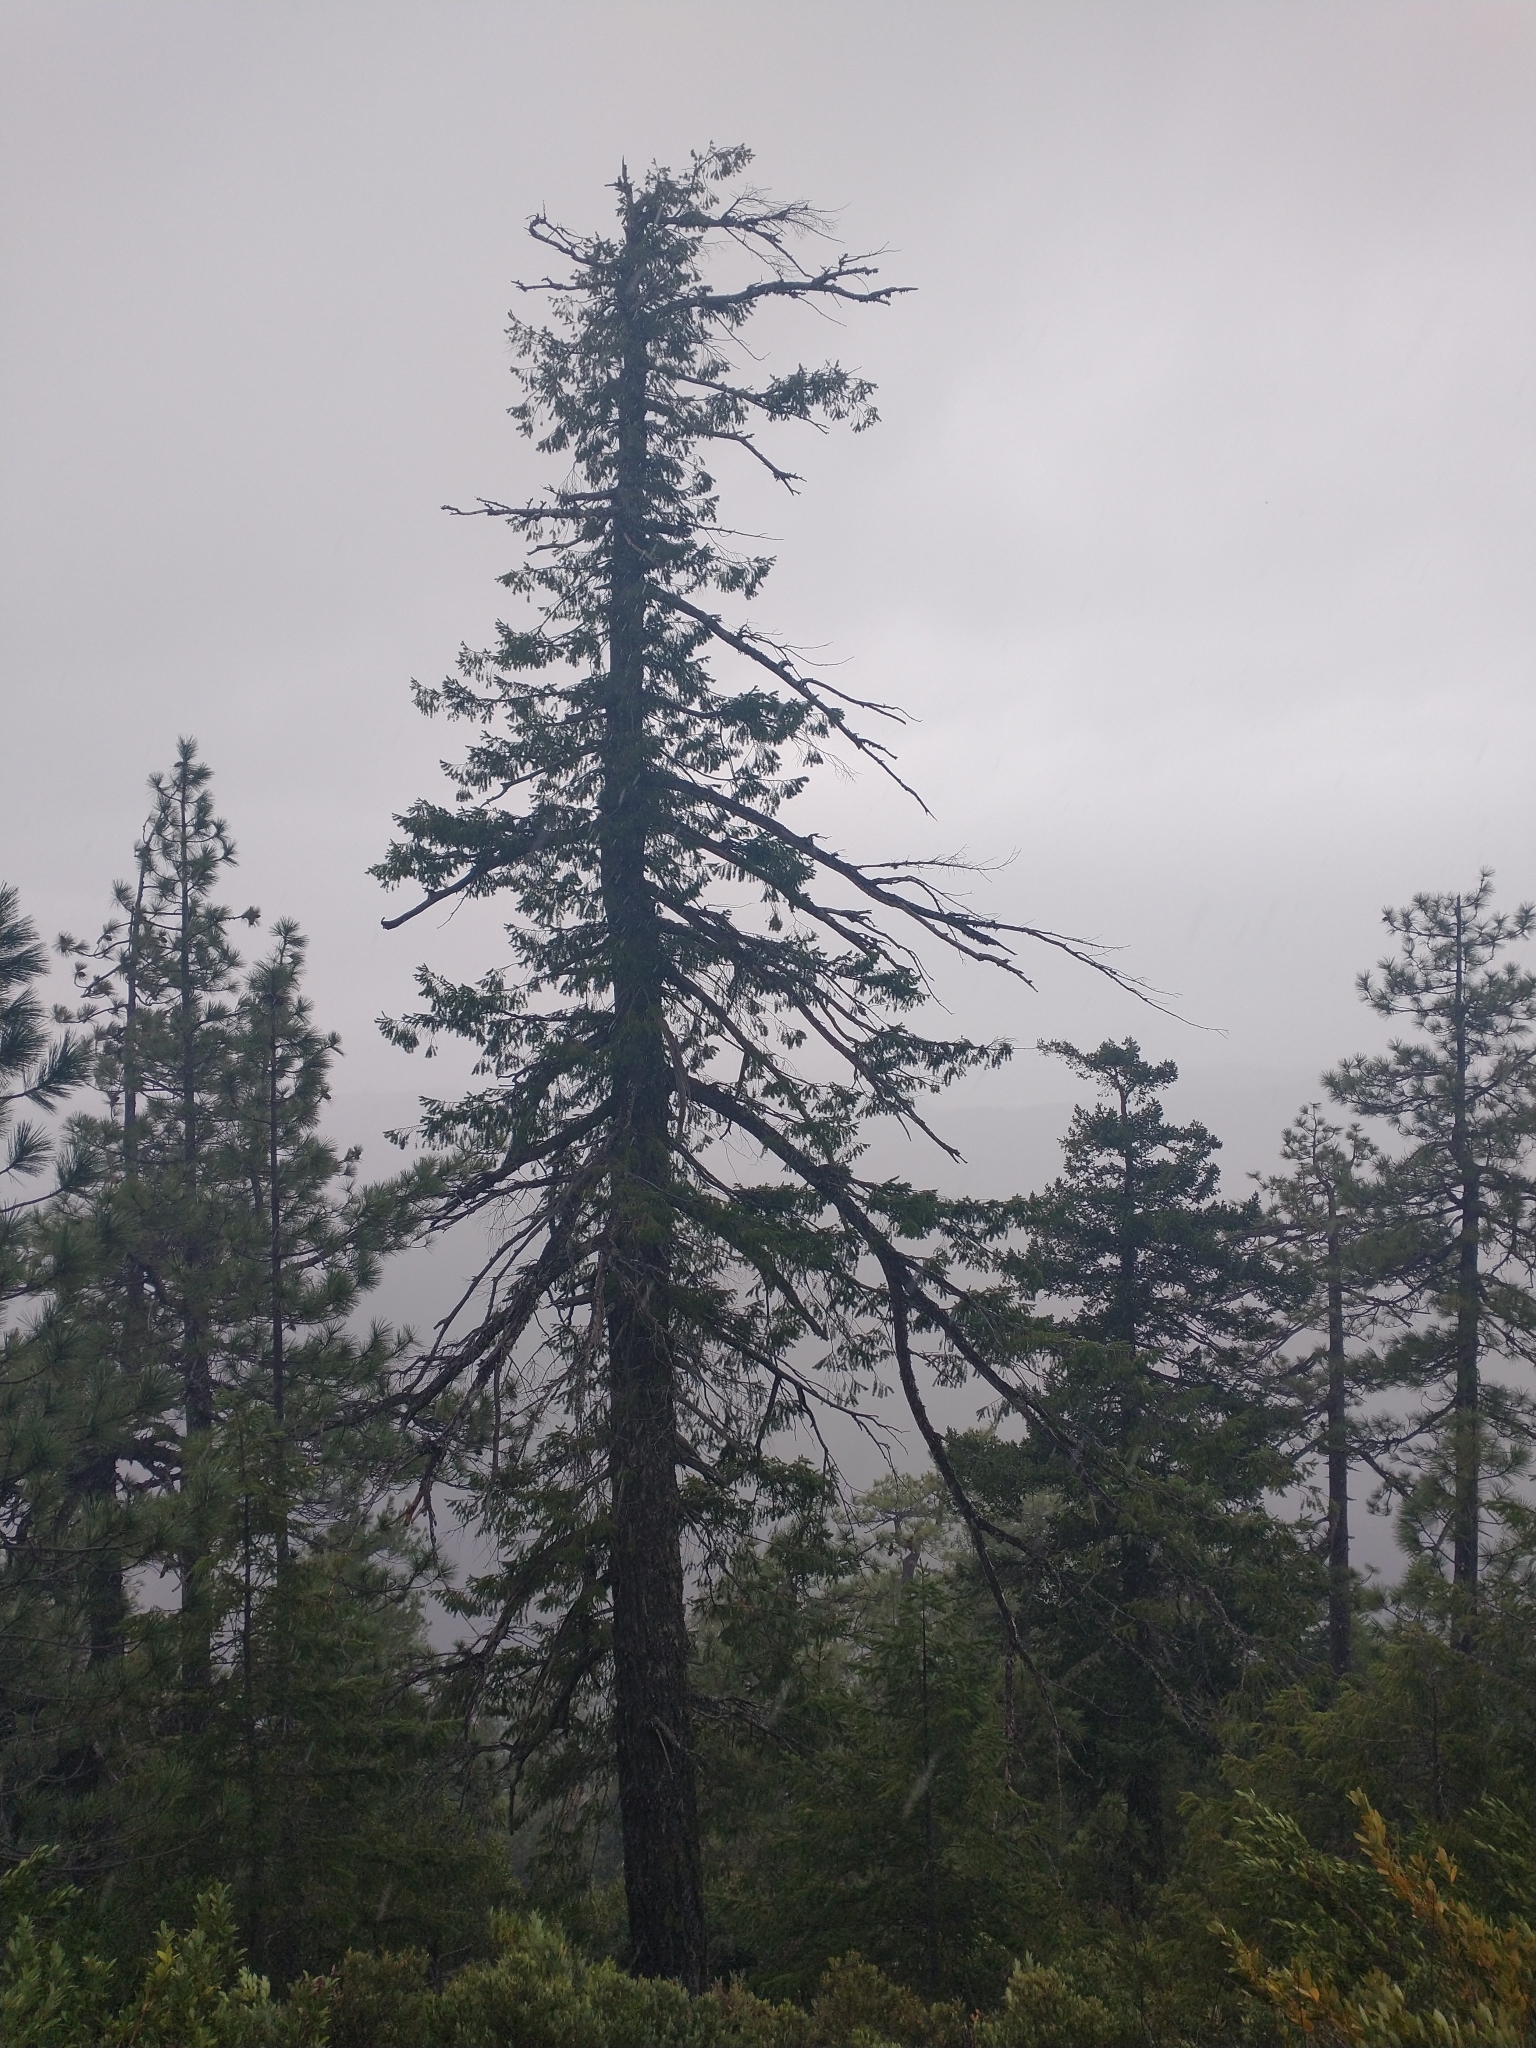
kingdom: Plantae
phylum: Tracheophyta
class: Pinopsida
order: Pinales
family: Pinaceae
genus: Pseudotsuga
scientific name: Pseudotsuga menziesii
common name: Douglas fir
